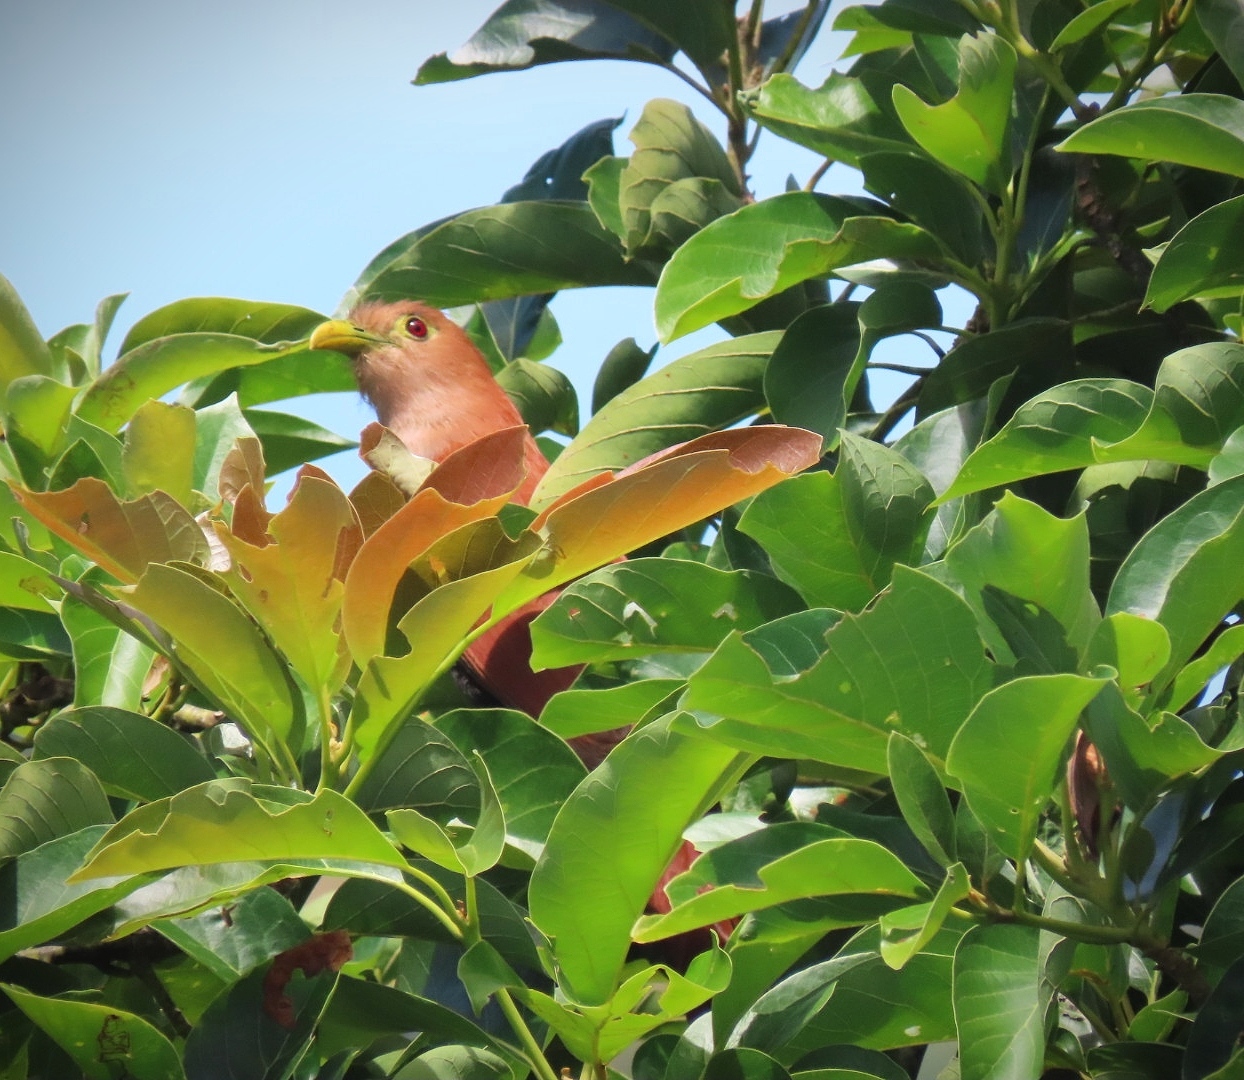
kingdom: Animalia
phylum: Chordata
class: Aves
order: Cuculiformes
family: Cuculidae
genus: Piaya
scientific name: Piaya cayana
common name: Squirrel cuckoo
